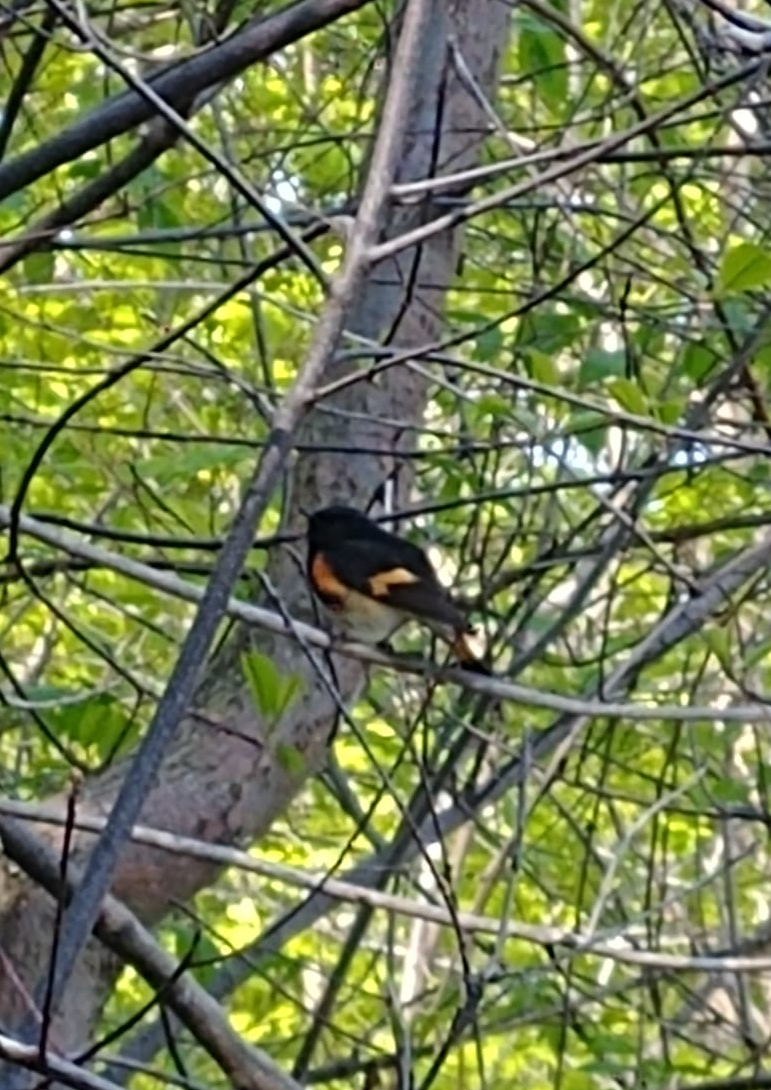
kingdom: Animalia
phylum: Chordata
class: Aves
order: Passeriformes
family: Parulidae
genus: Setophaga
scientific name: Setophaga ruticilla
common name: American redstart
